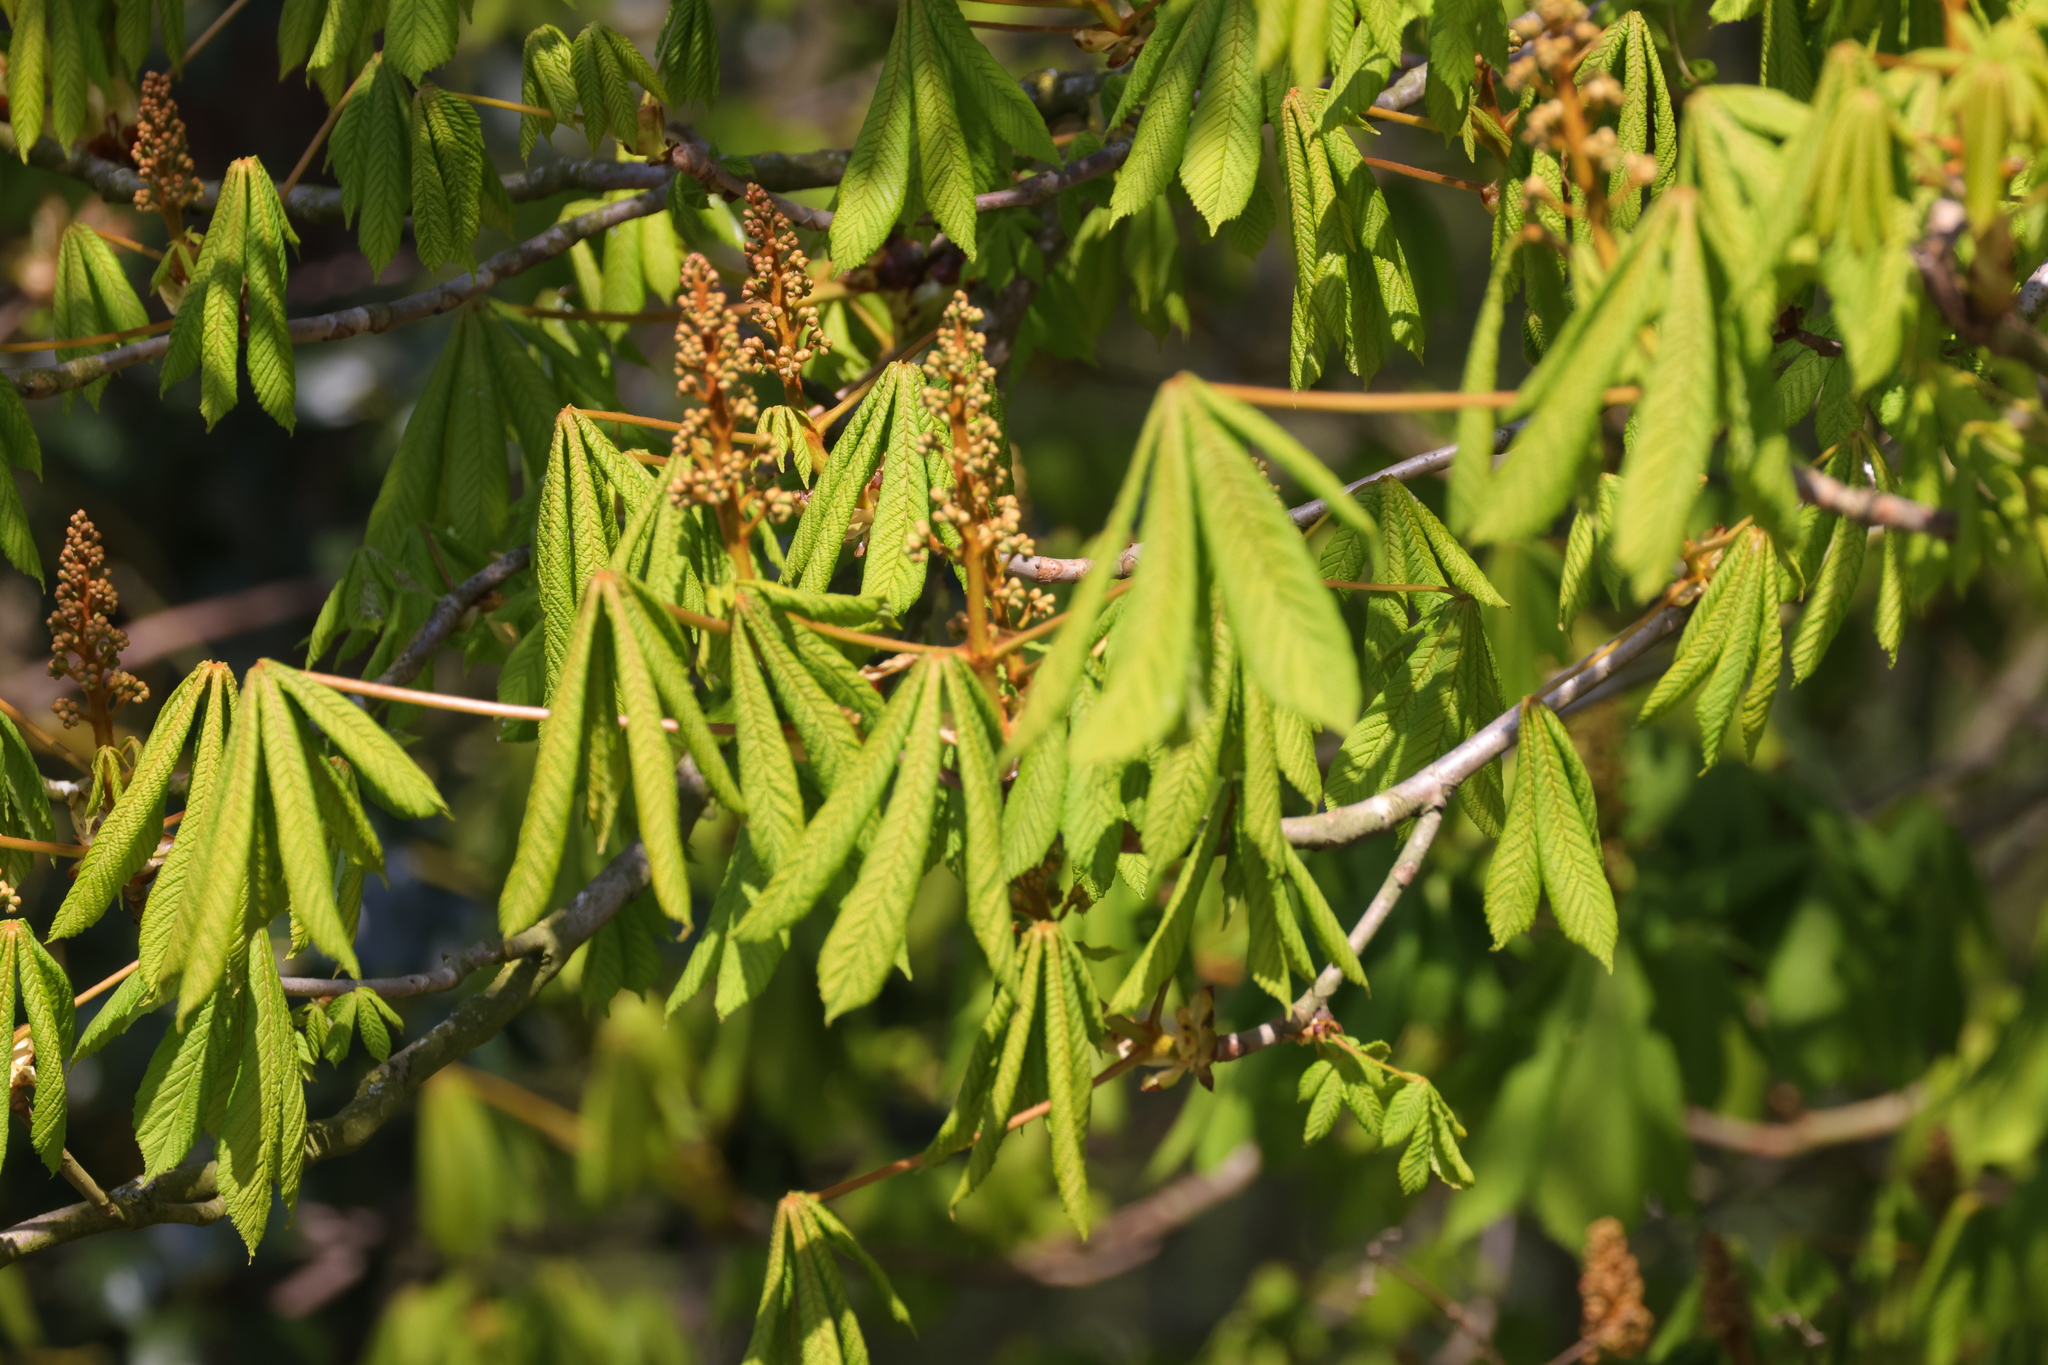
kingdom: Plantae
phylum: Tracheophyta
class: Magnoliopsida
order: Sapindales
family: Sapindaceae
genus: Aesculus
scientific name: Aesculus hippocastanum
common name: Horse-chestnut
